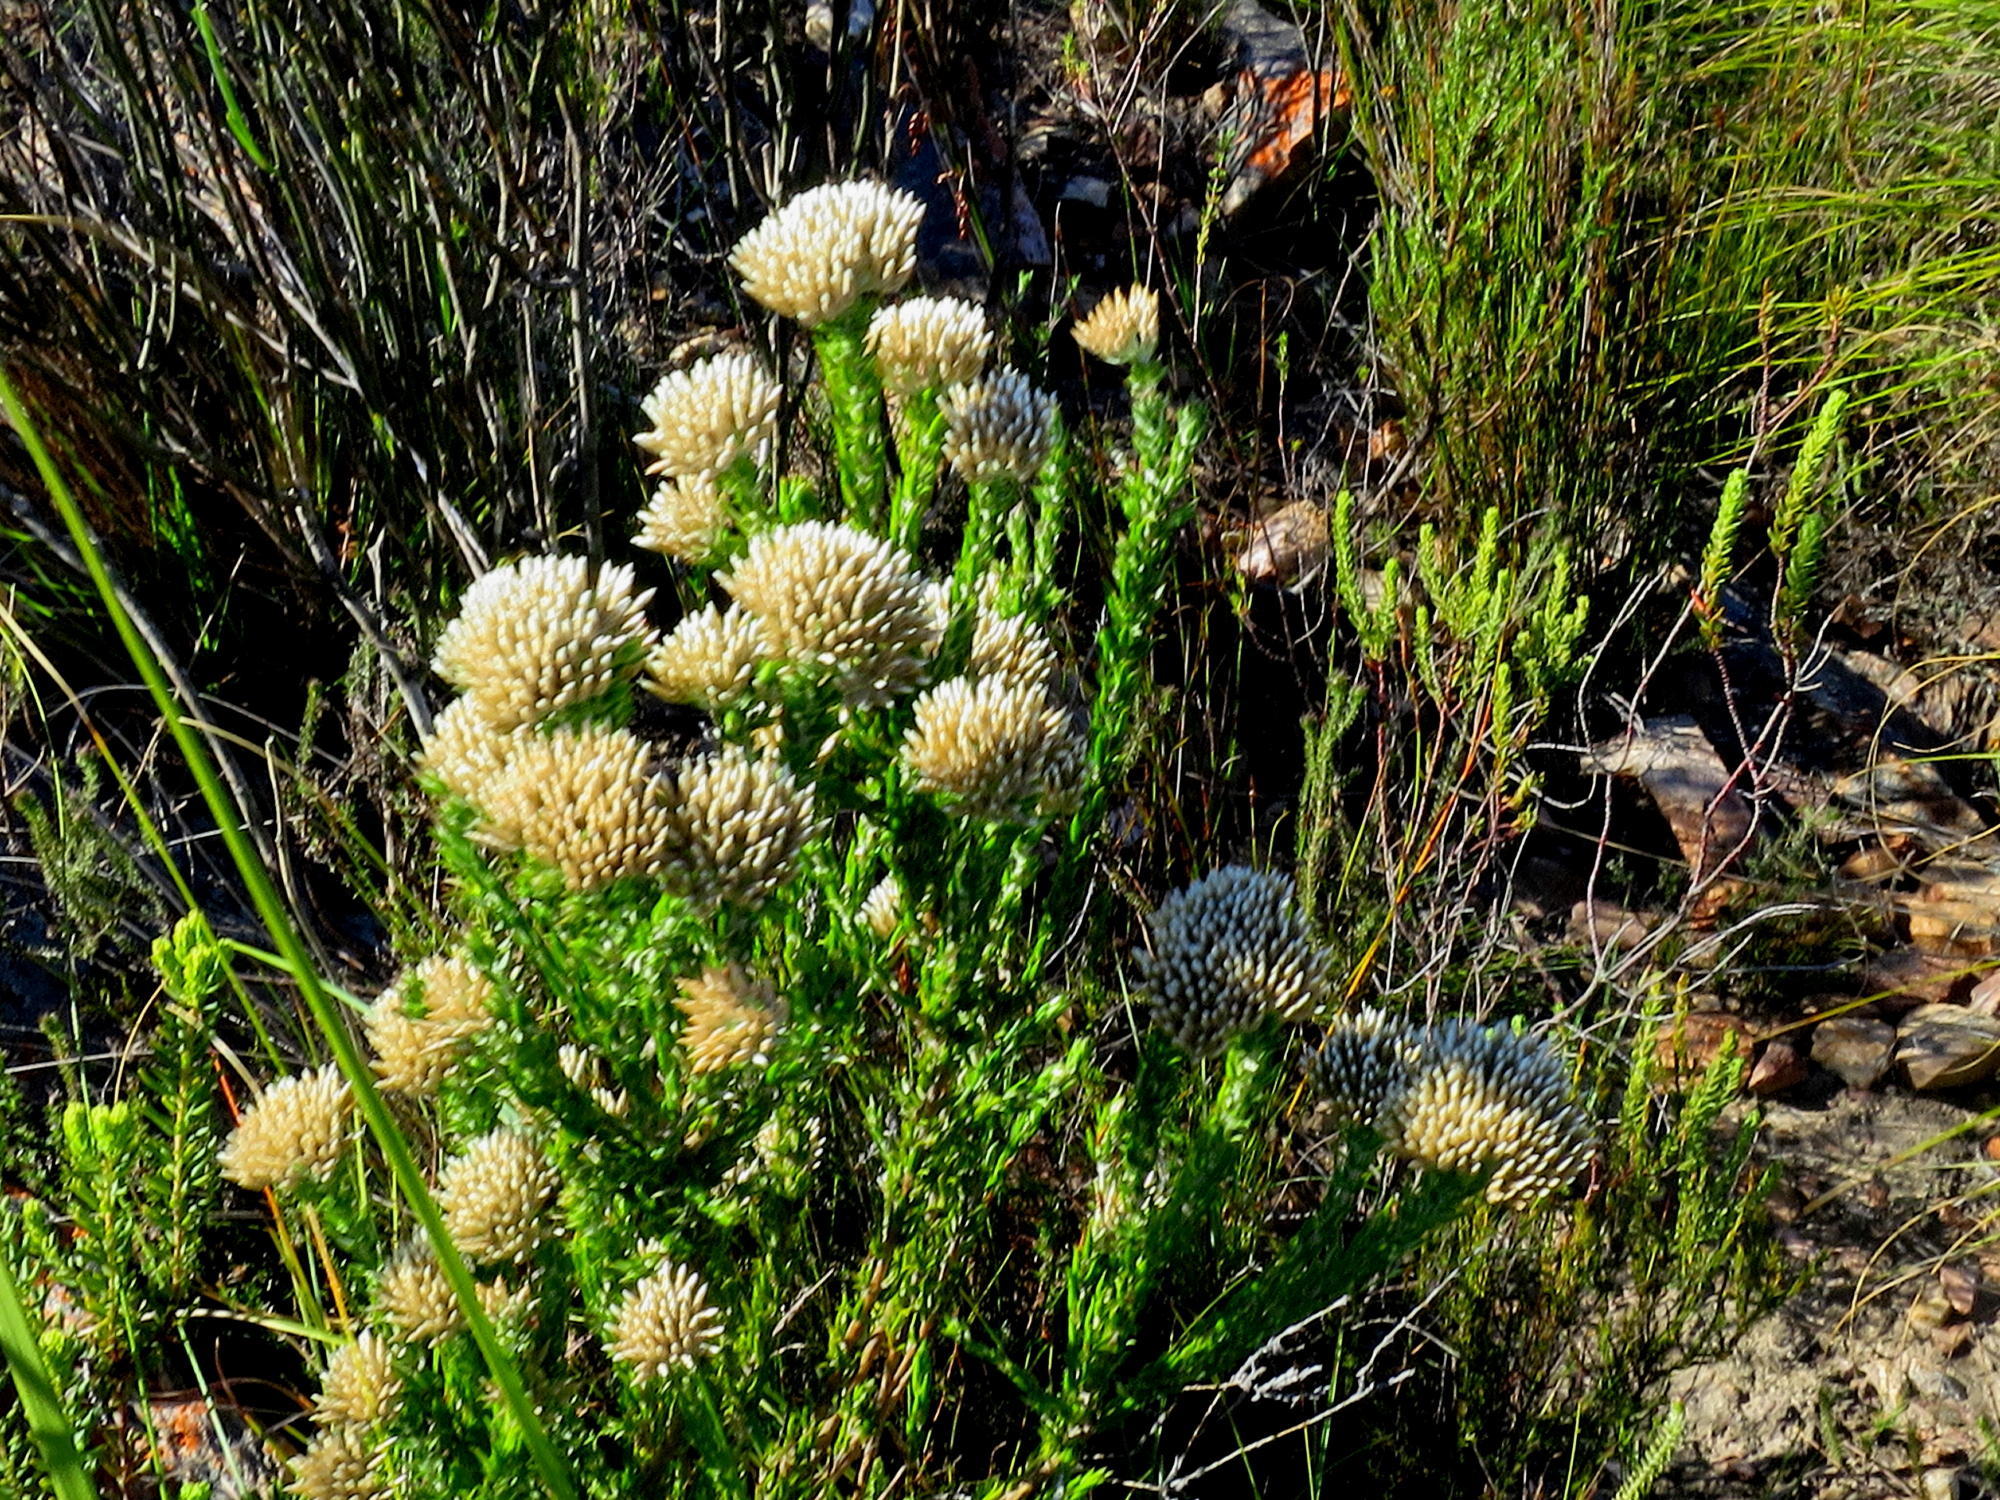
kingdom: Plantae
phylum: Tracheophyta
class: Magnoliopsida
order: Asterales
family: Asteraceae
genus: Metalasia
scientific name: Metalasia pungens
